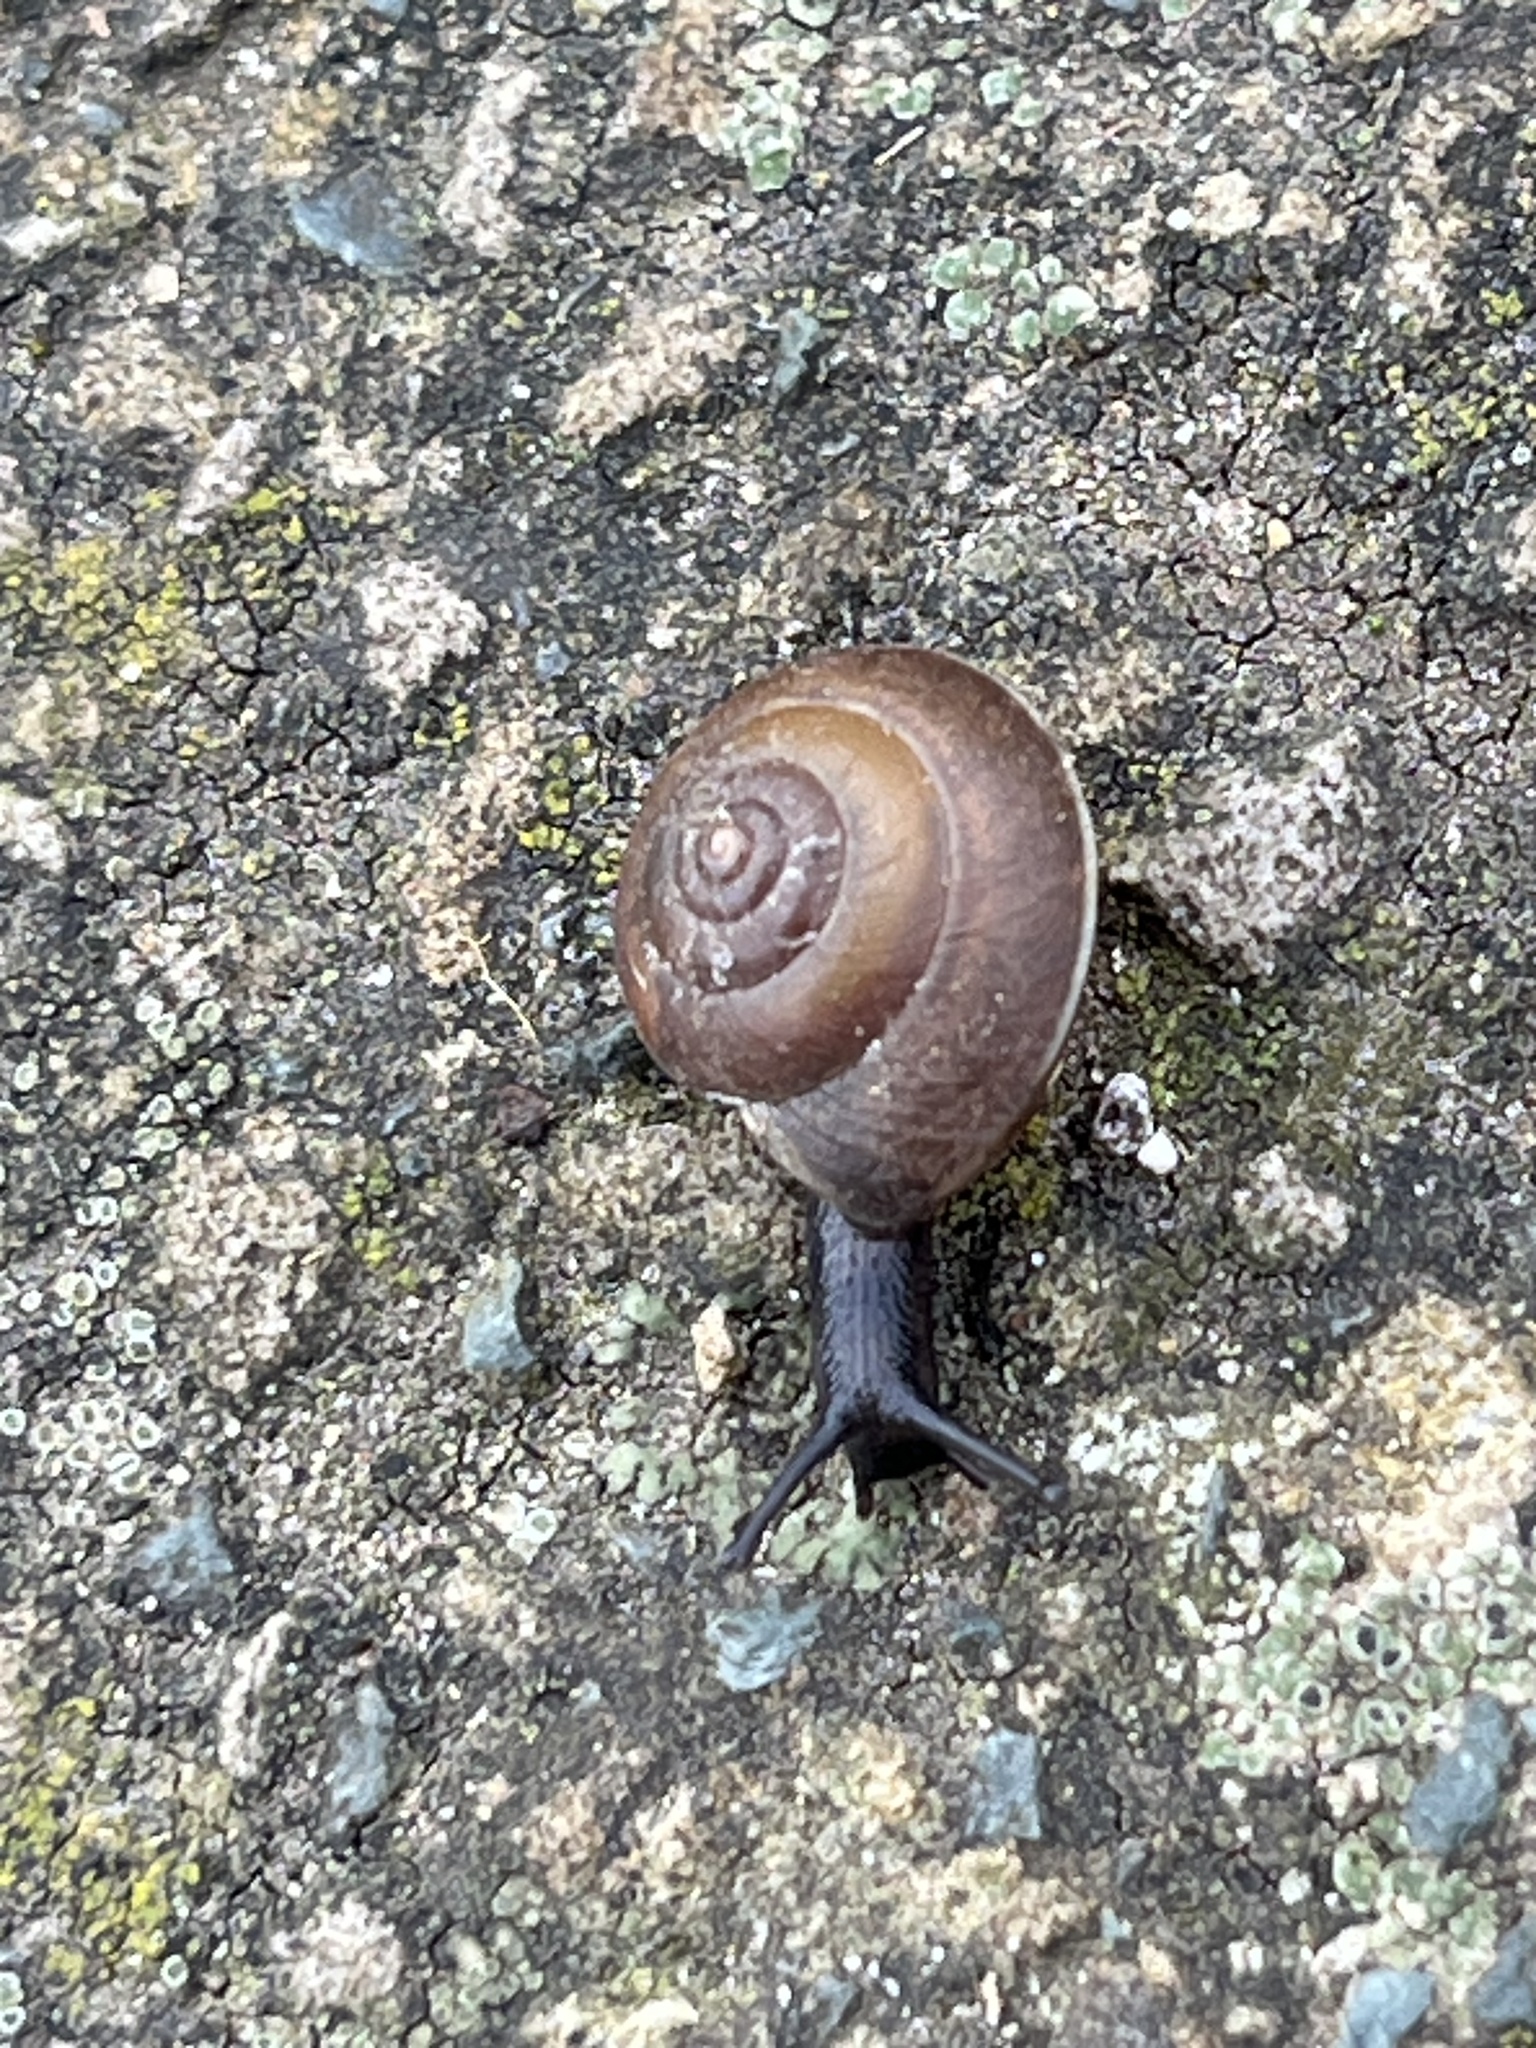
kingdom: Animalia
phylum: Mollusca
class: Gastropoda
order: Stylommatophora
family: Hygromiidae
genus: Hygromia
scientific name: Hygromia cinctella
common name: Girdled snail
